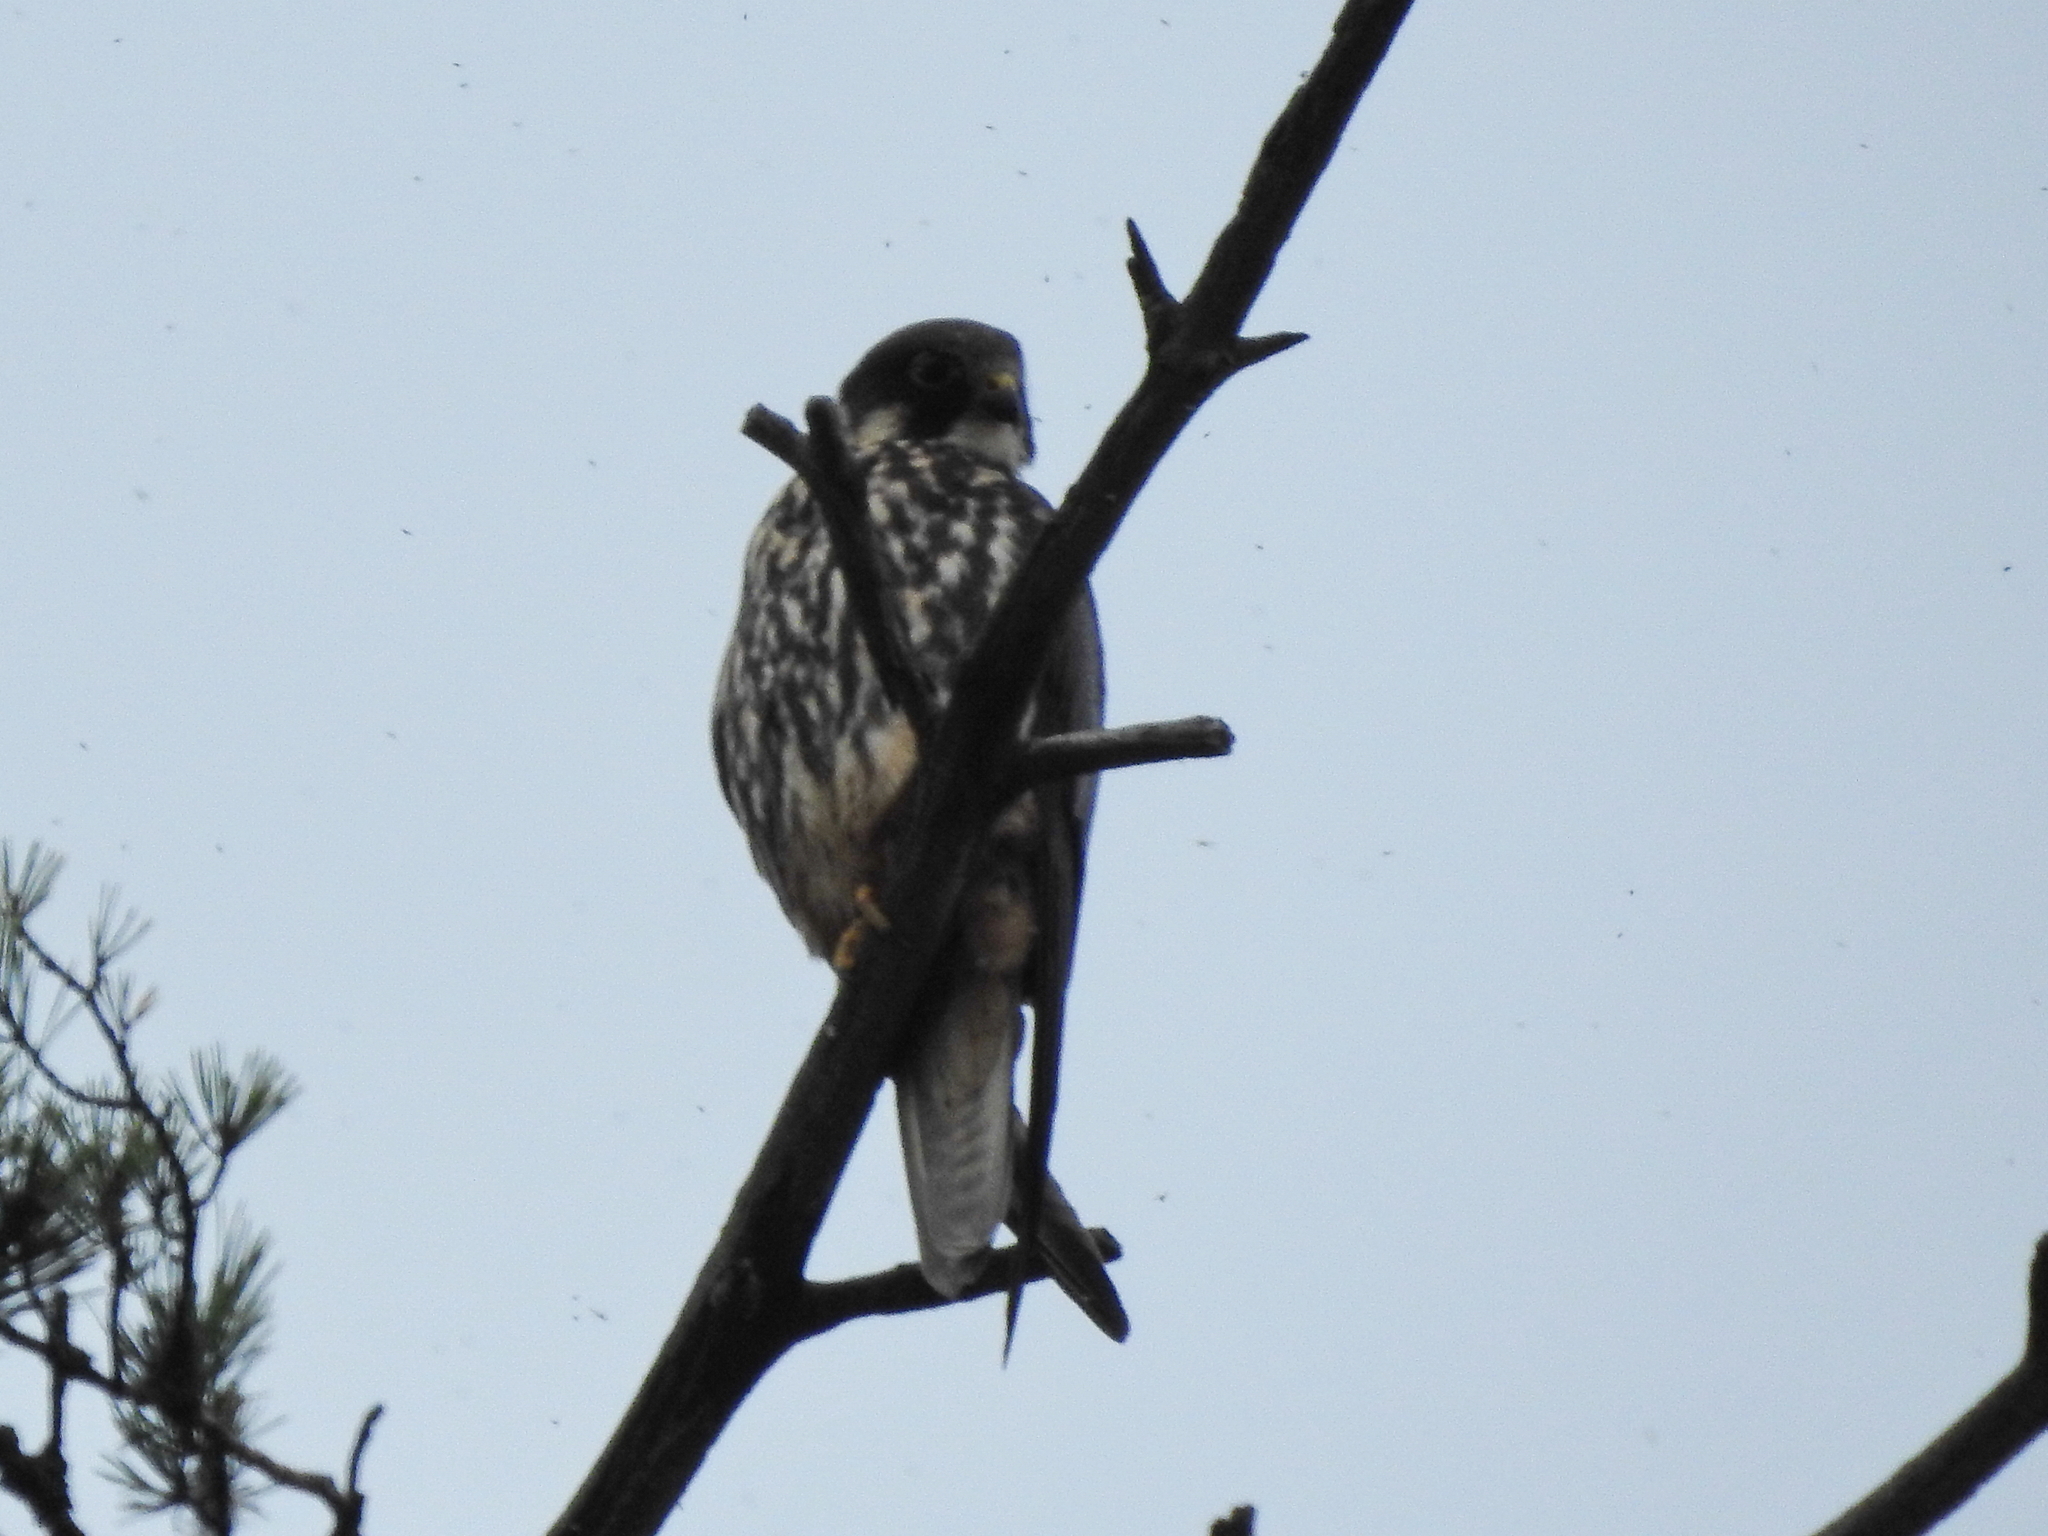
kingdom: Animalia
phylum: Chordata
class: Aves
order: Falconiformes
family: Falconidae
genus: Falco
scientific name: Falco subbuteo
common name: Eurasian hobby
